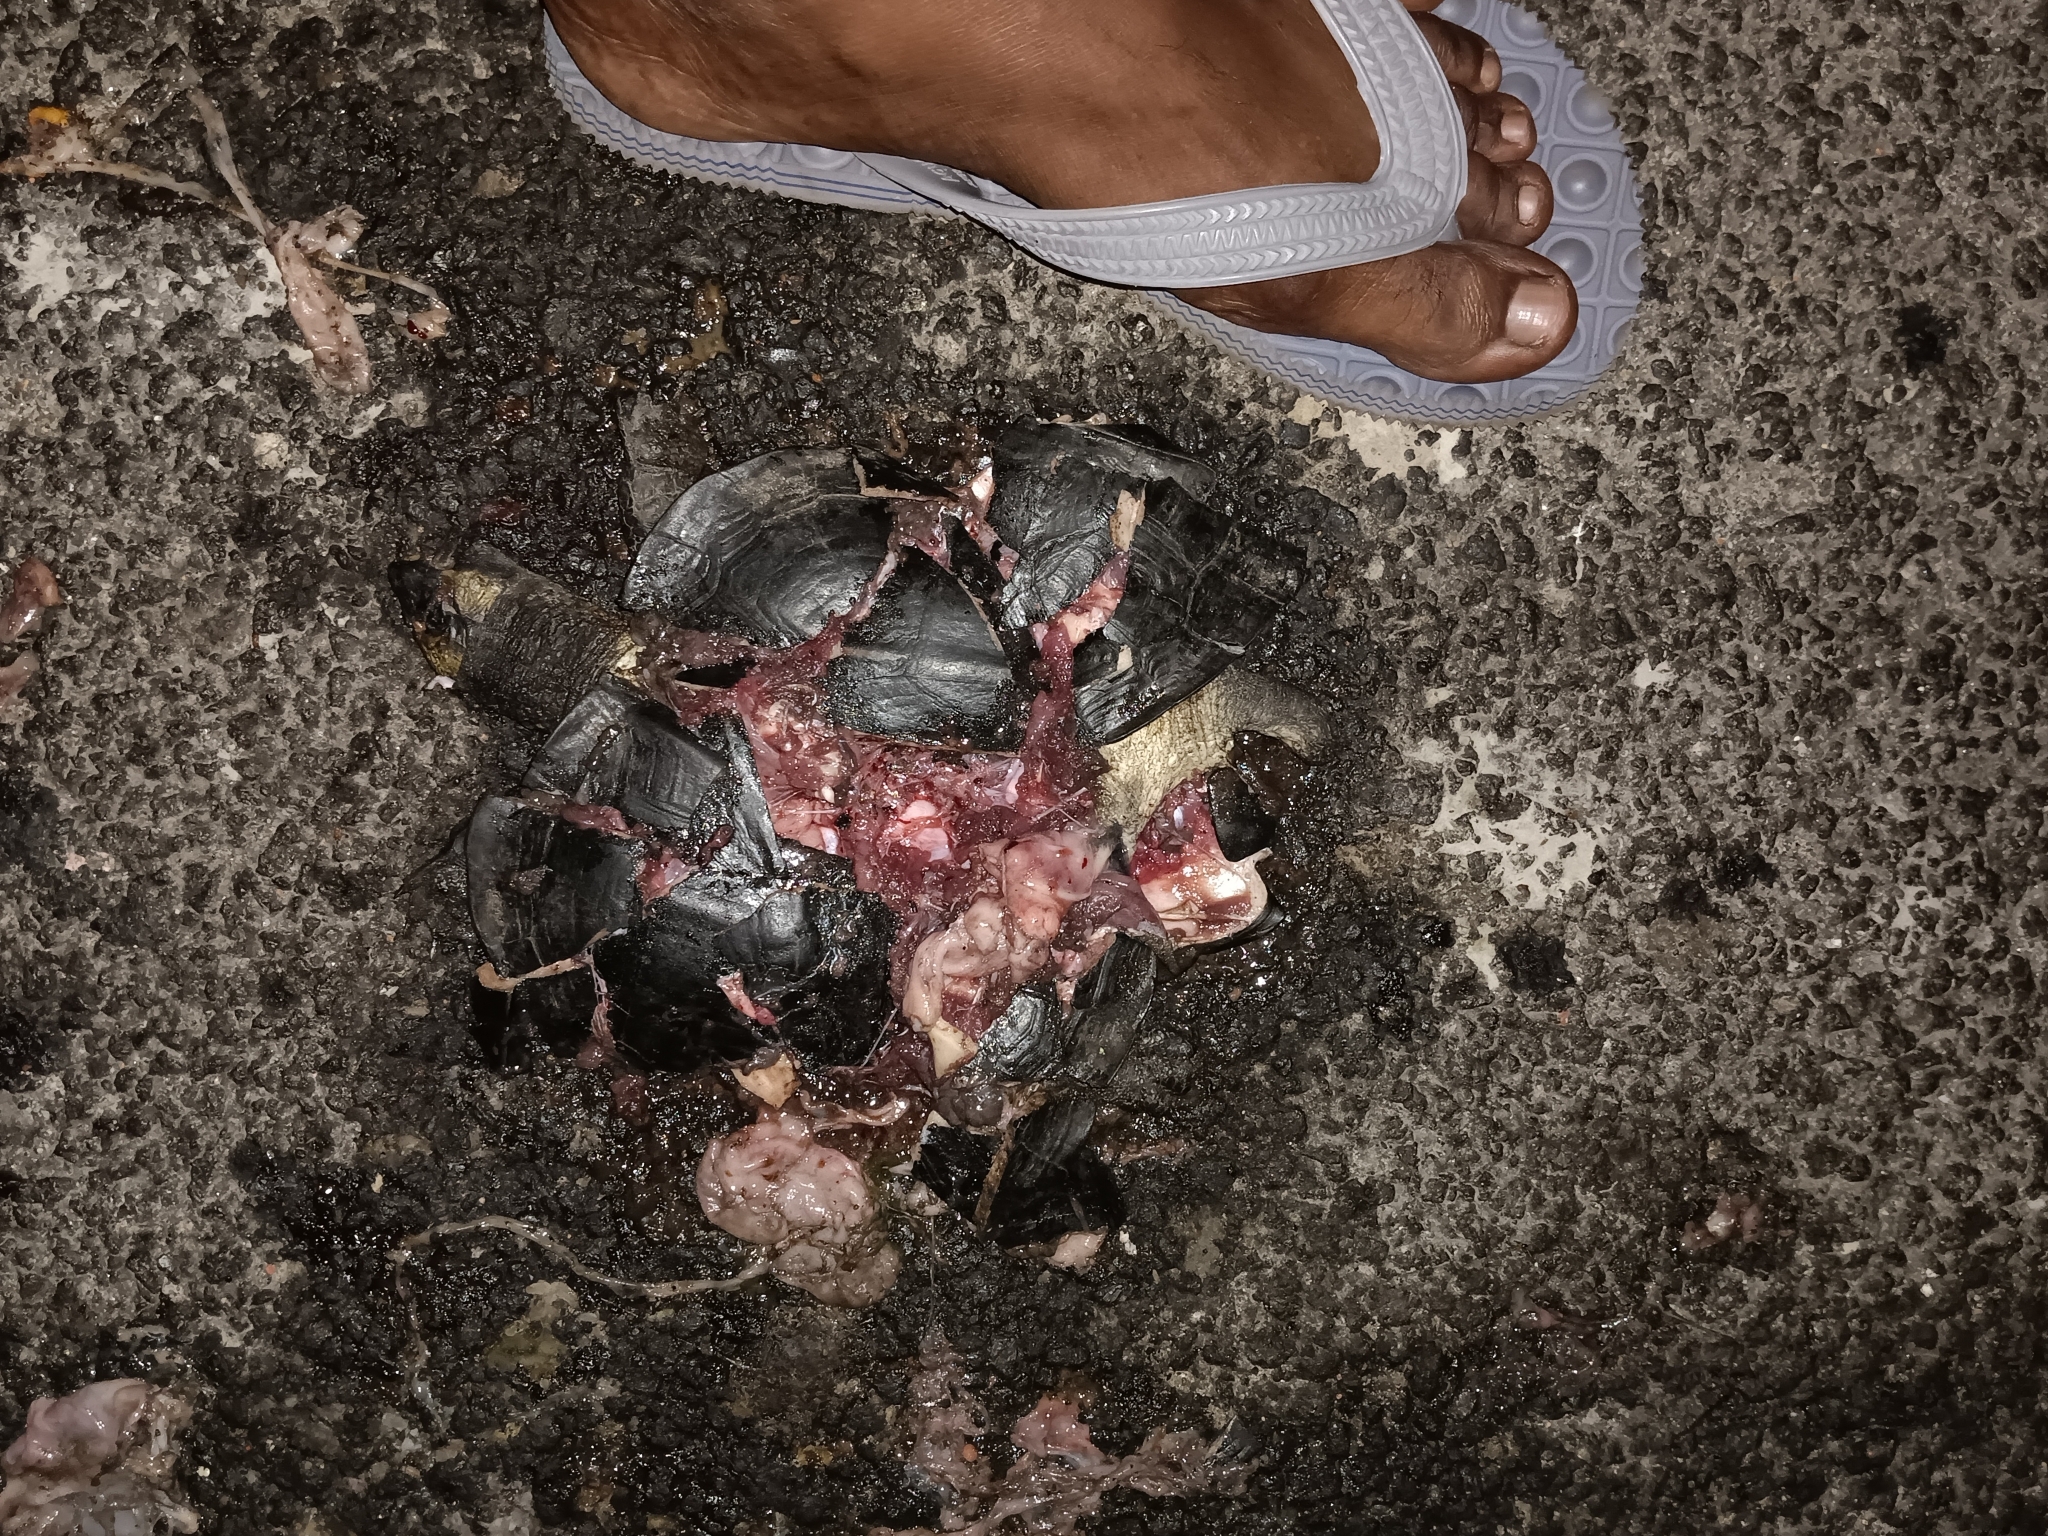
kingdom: Animalia
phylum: Chordata
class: Testudines
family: Geoemydidae
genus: Melanochelys
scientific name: Melanochelys trijuga
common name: Indian black turtle
